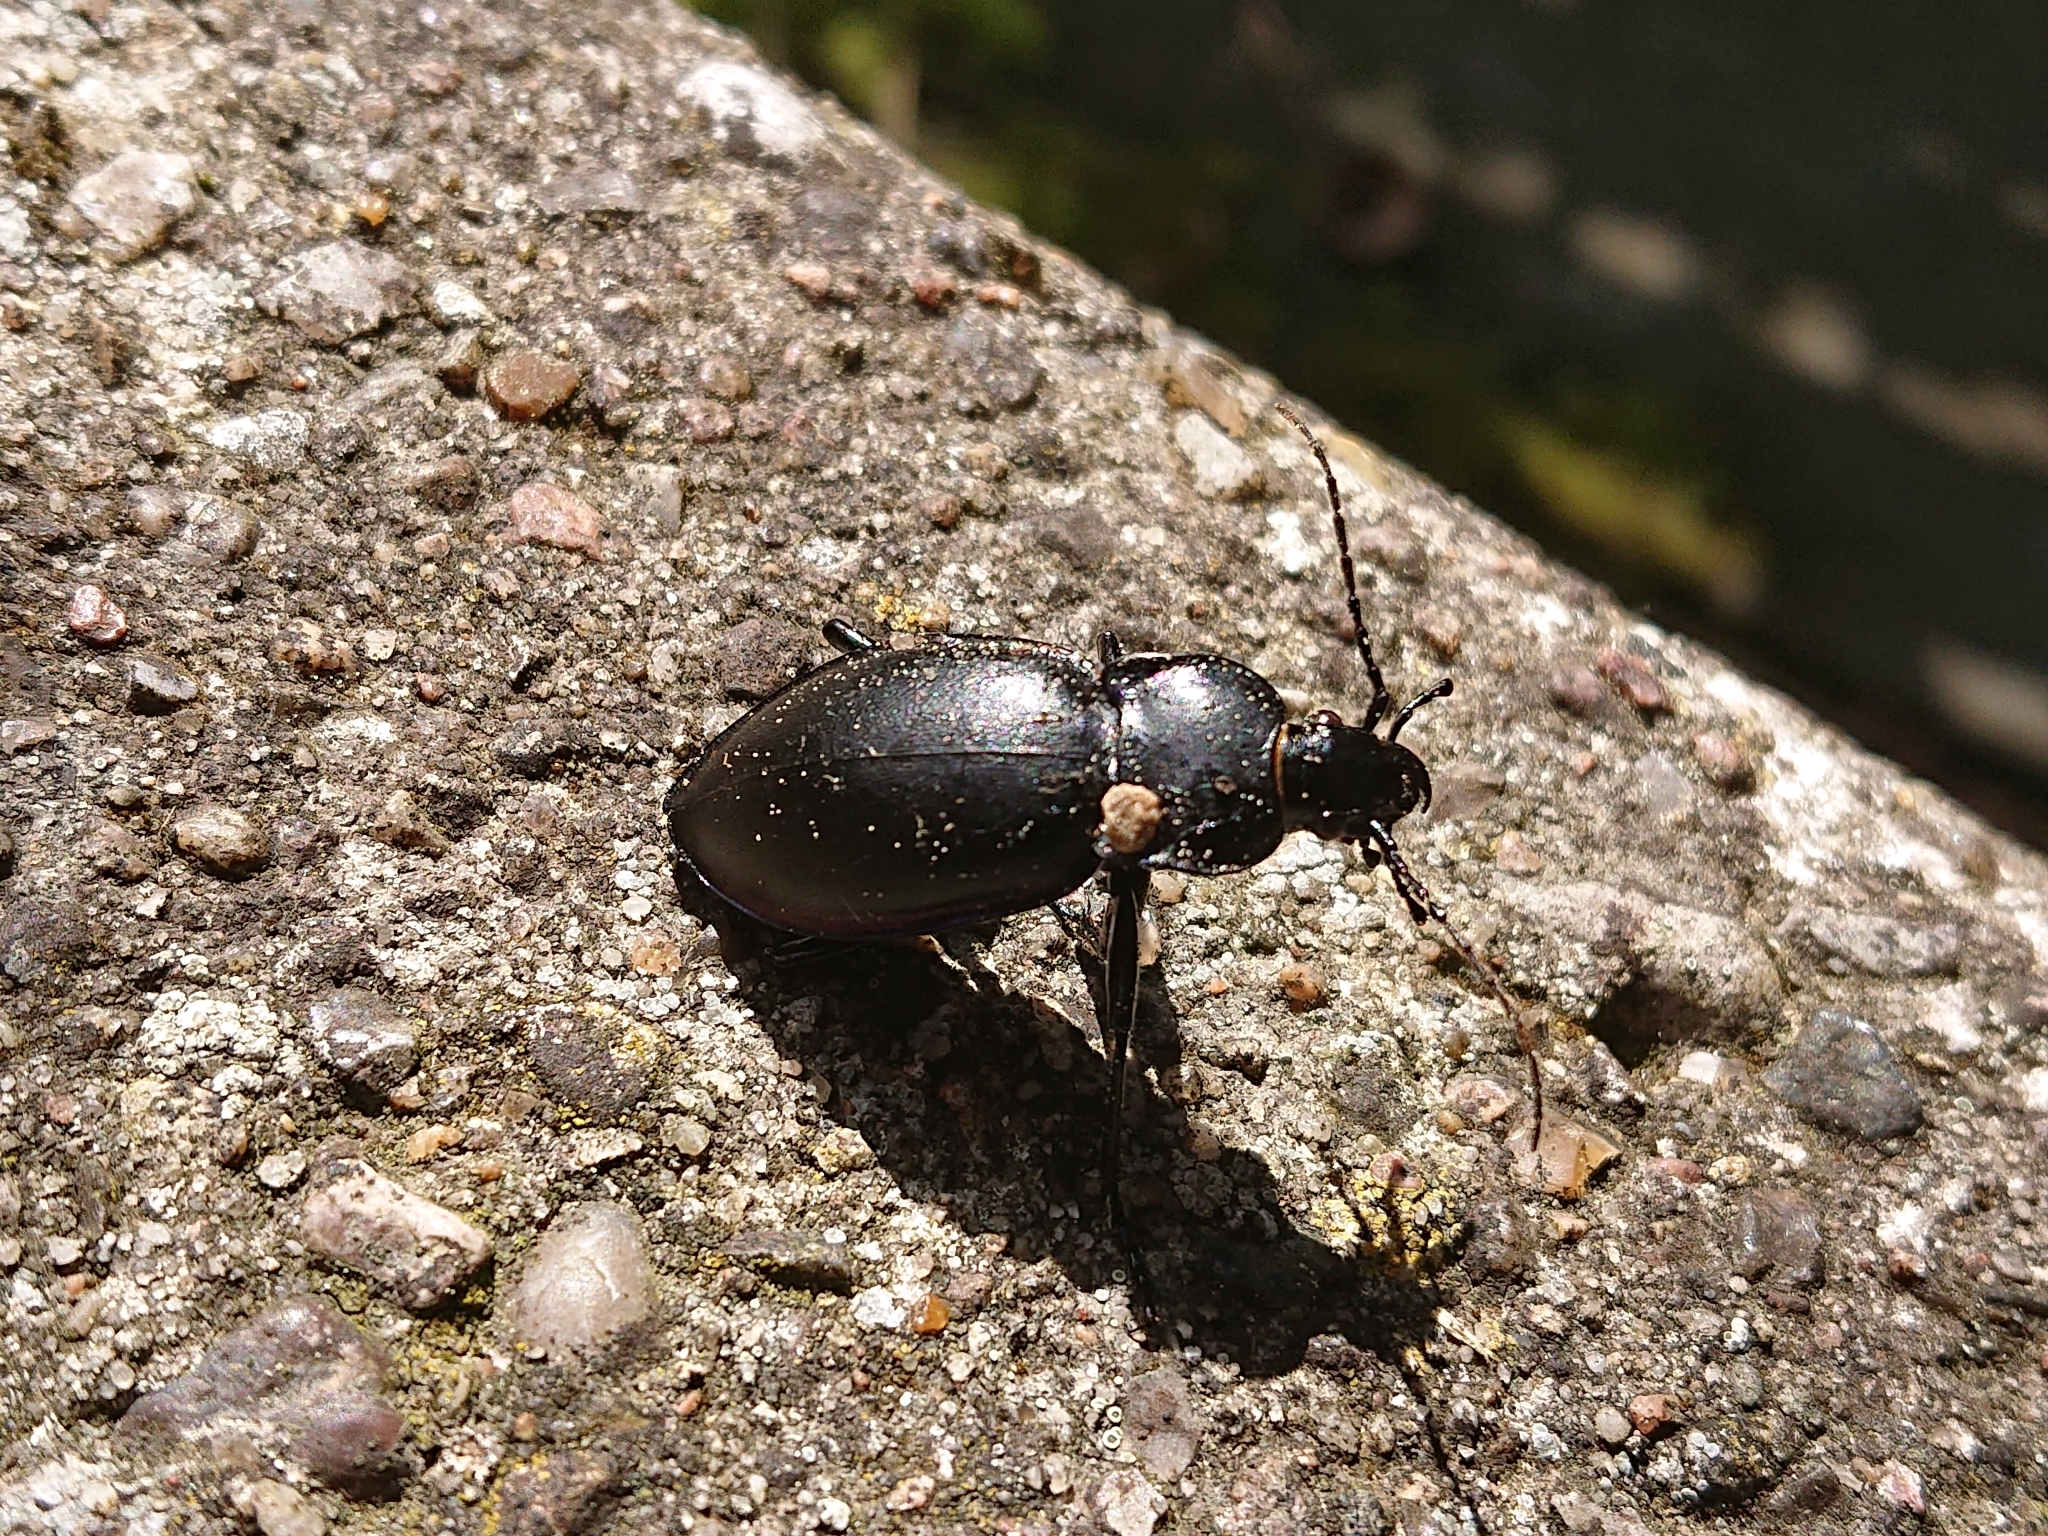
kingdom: Animalia
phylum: Arthropoda
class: Insecta
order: Coleoptera
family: Carabidae
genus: Carabus
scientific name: Carabus violaceus
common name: Violet ground beetle
